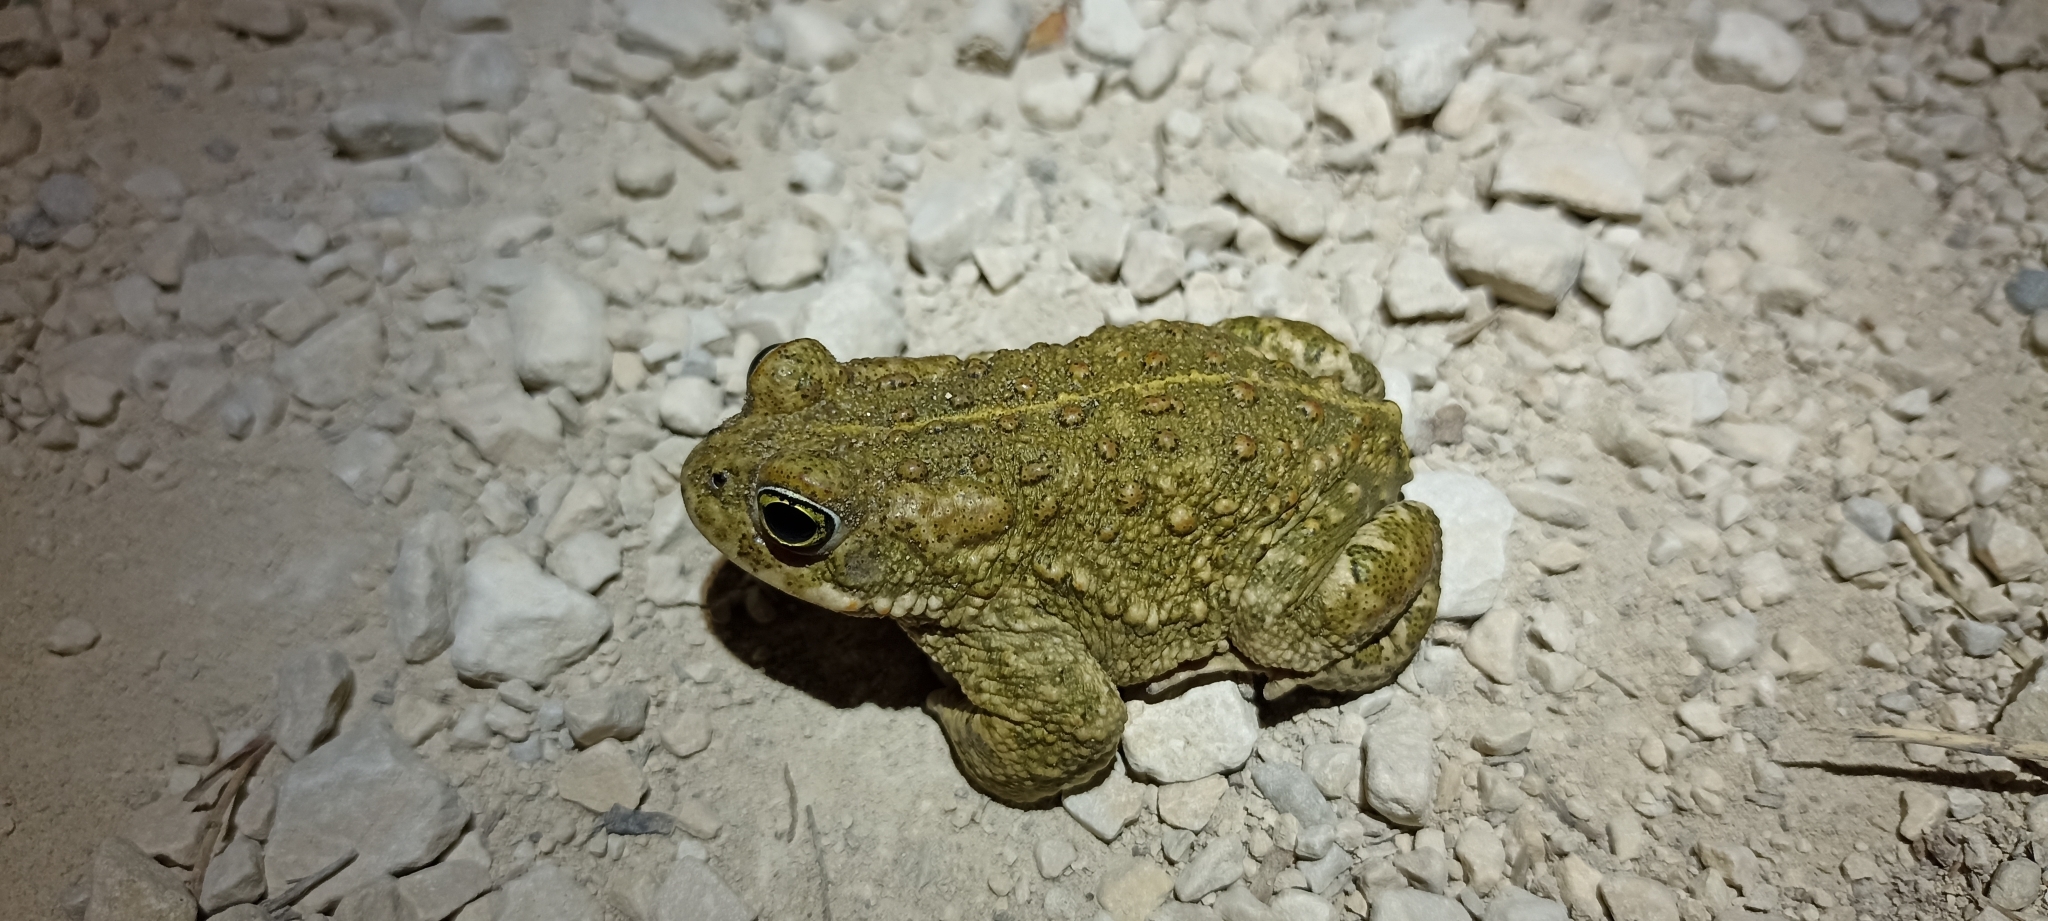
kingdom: Animalia
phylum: Chordata
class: Amphibia
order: Anura
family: Bufonidae
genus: Epidalea
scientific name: Epidalea calamita
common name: Natterjack toad
